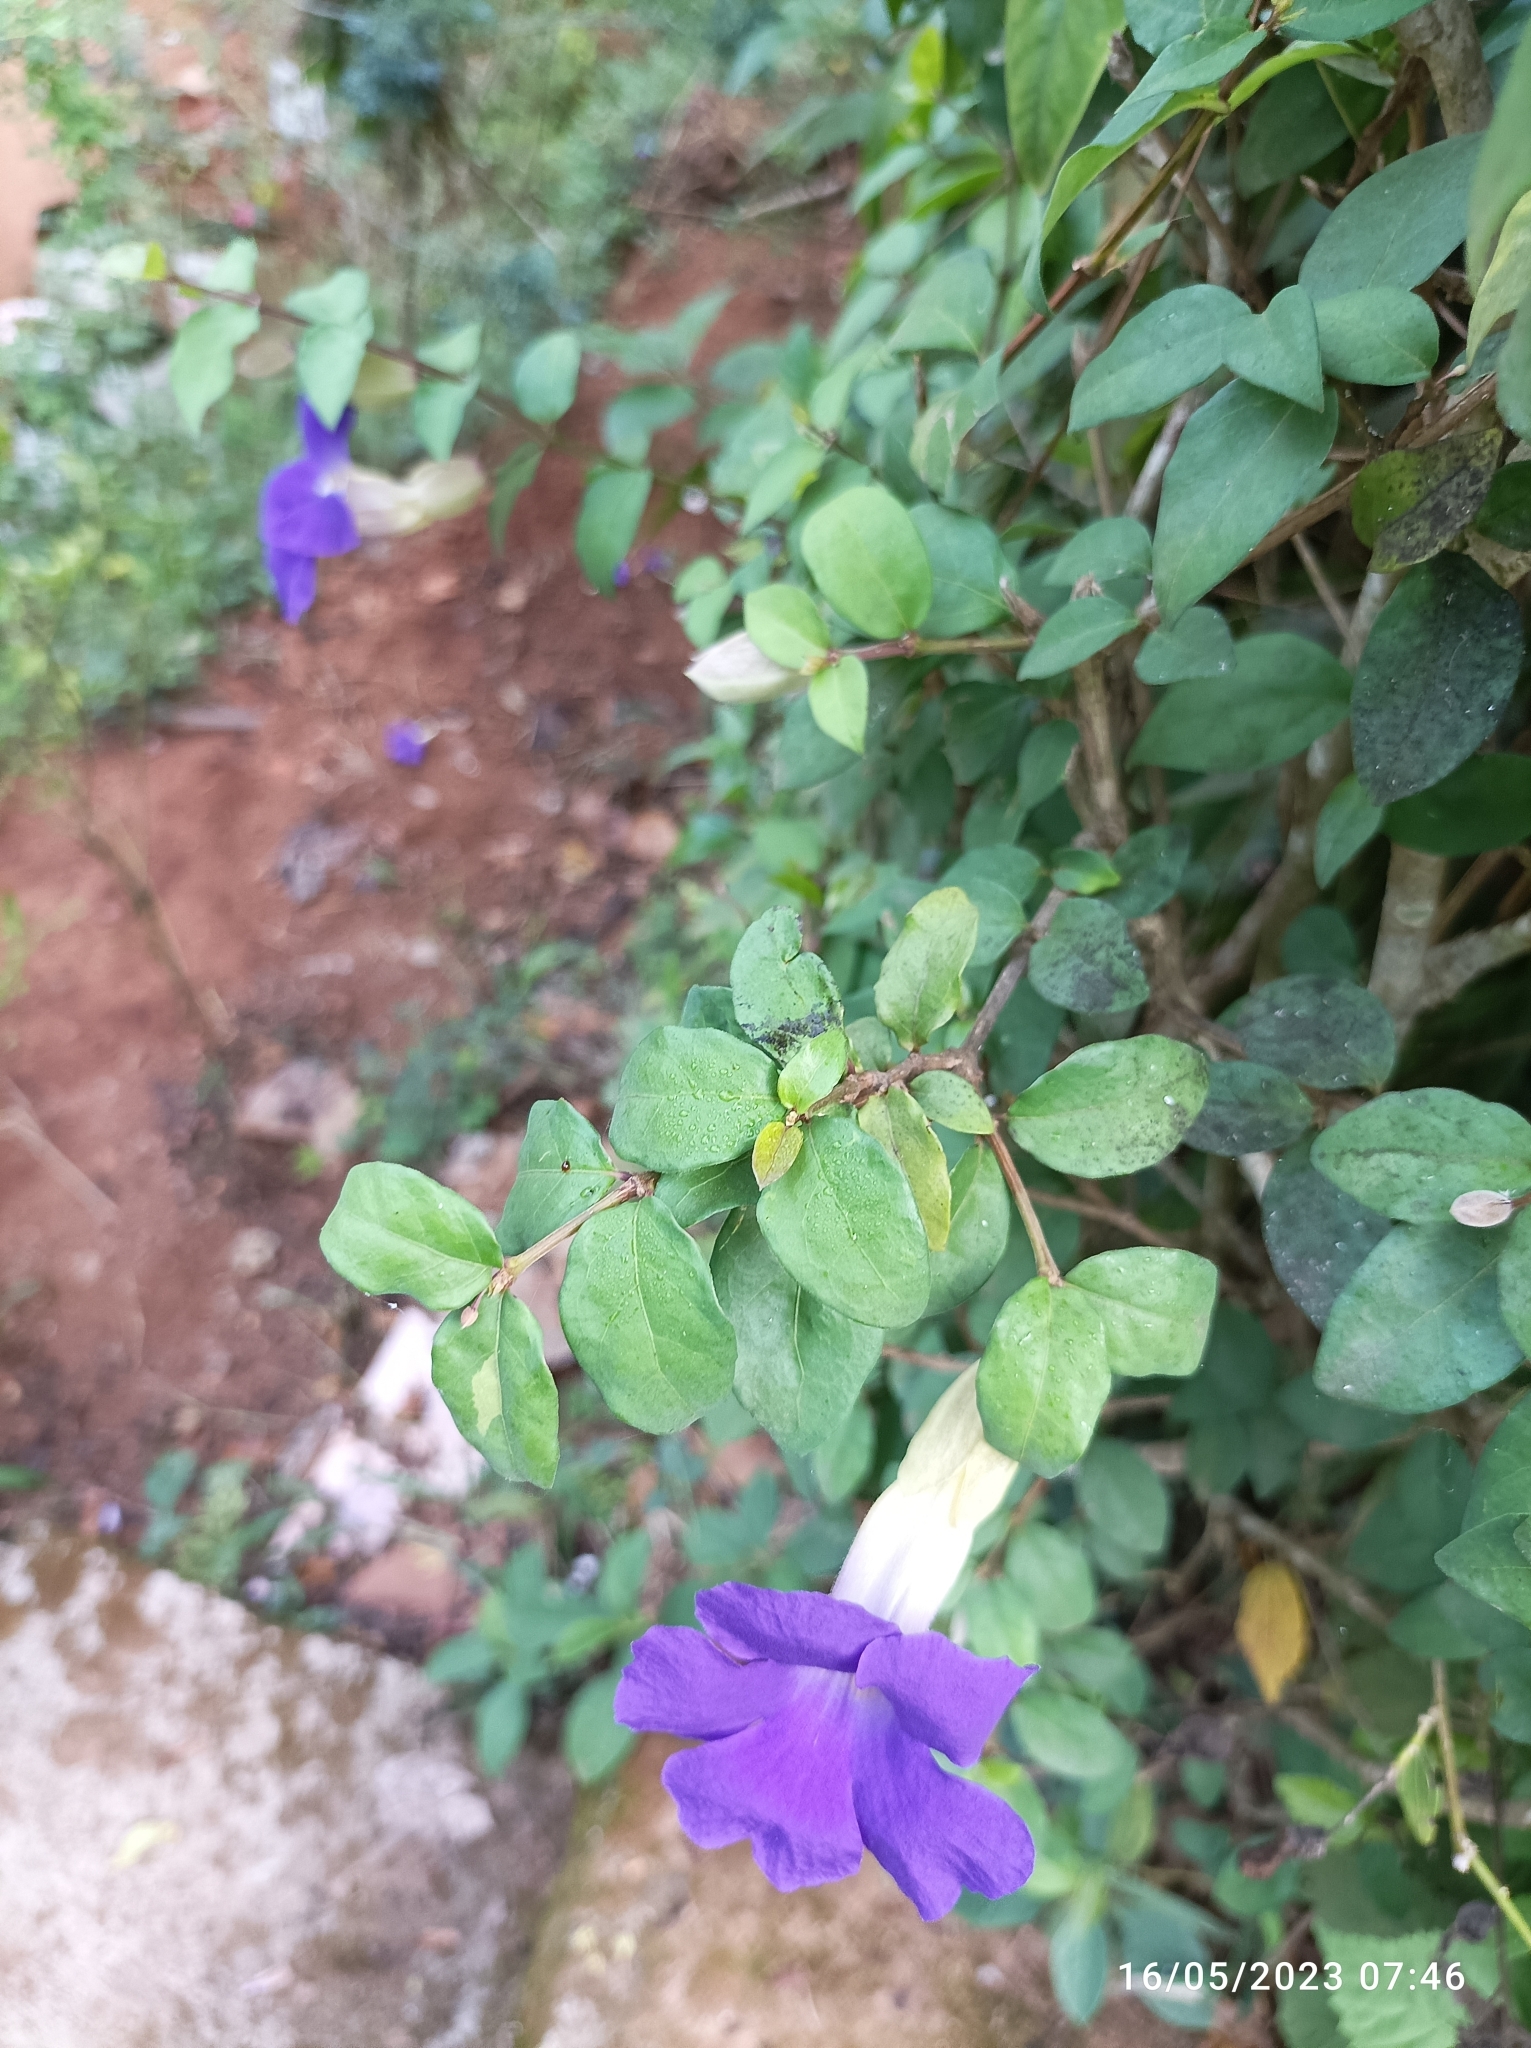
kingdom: Plantae
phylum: Tracheophyta
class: Magnoliopsida
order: Lamiales
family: Acanthaceae
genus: Thunbergia
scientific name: Thunbergia erecta
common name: Bush clockvine
